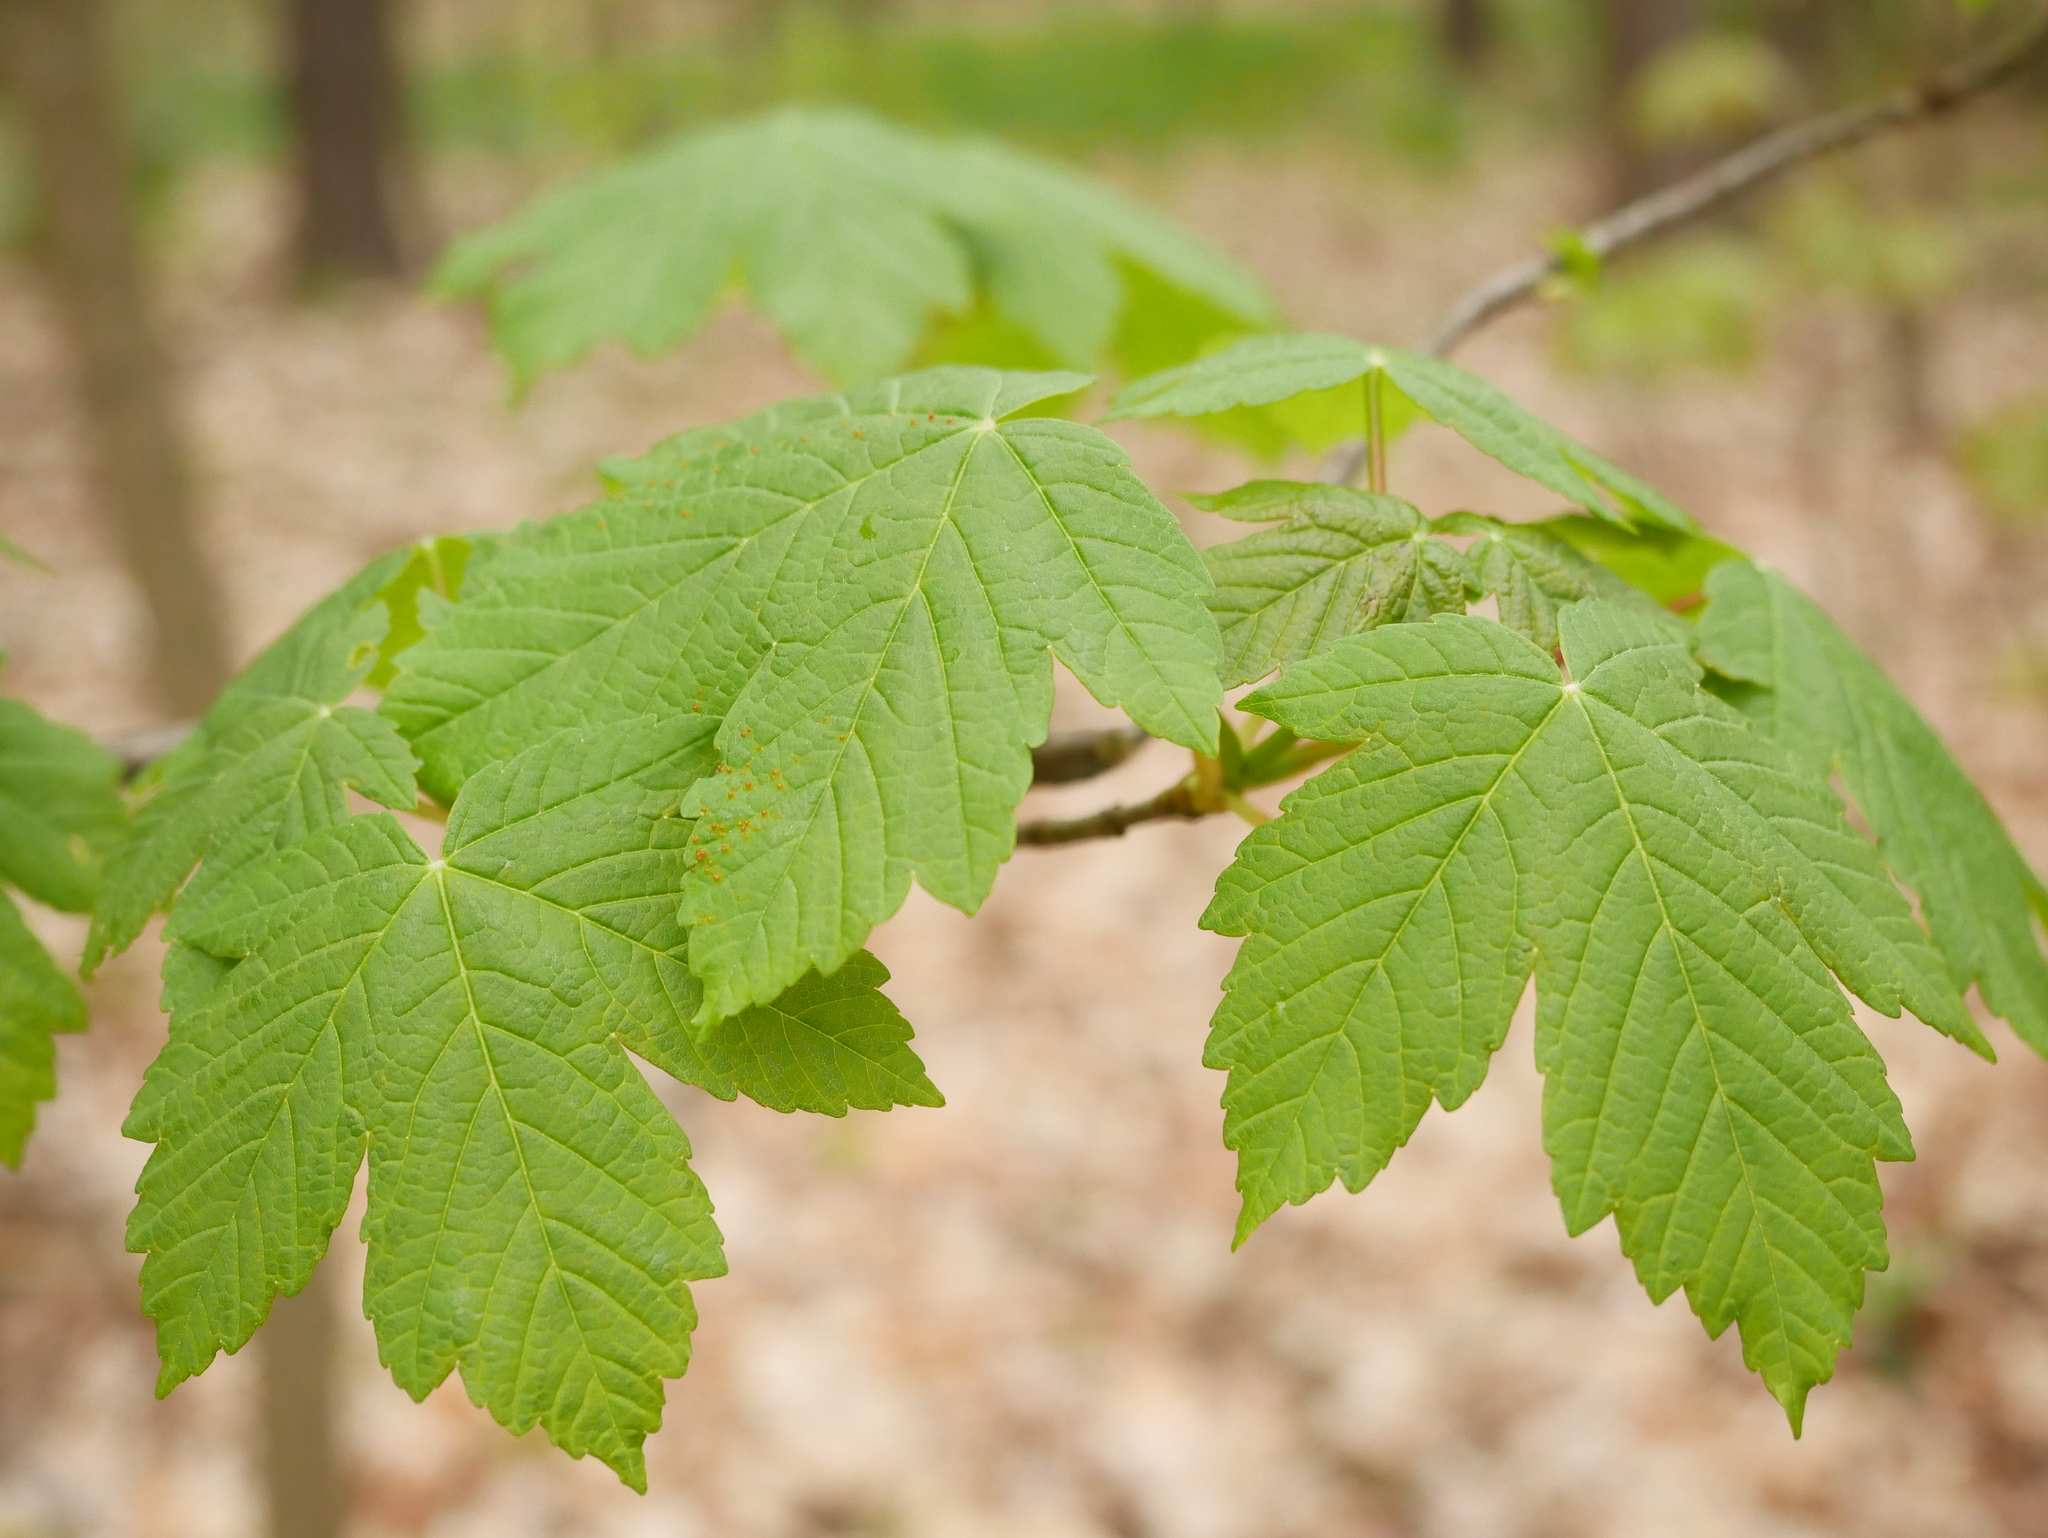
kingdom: Plantae
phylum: Tracheophyta
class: Magnoliopsida
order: Sapindales
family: Sapindaceae
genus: Acer
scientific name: Acer pseudoplatanus
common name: Sycamore
